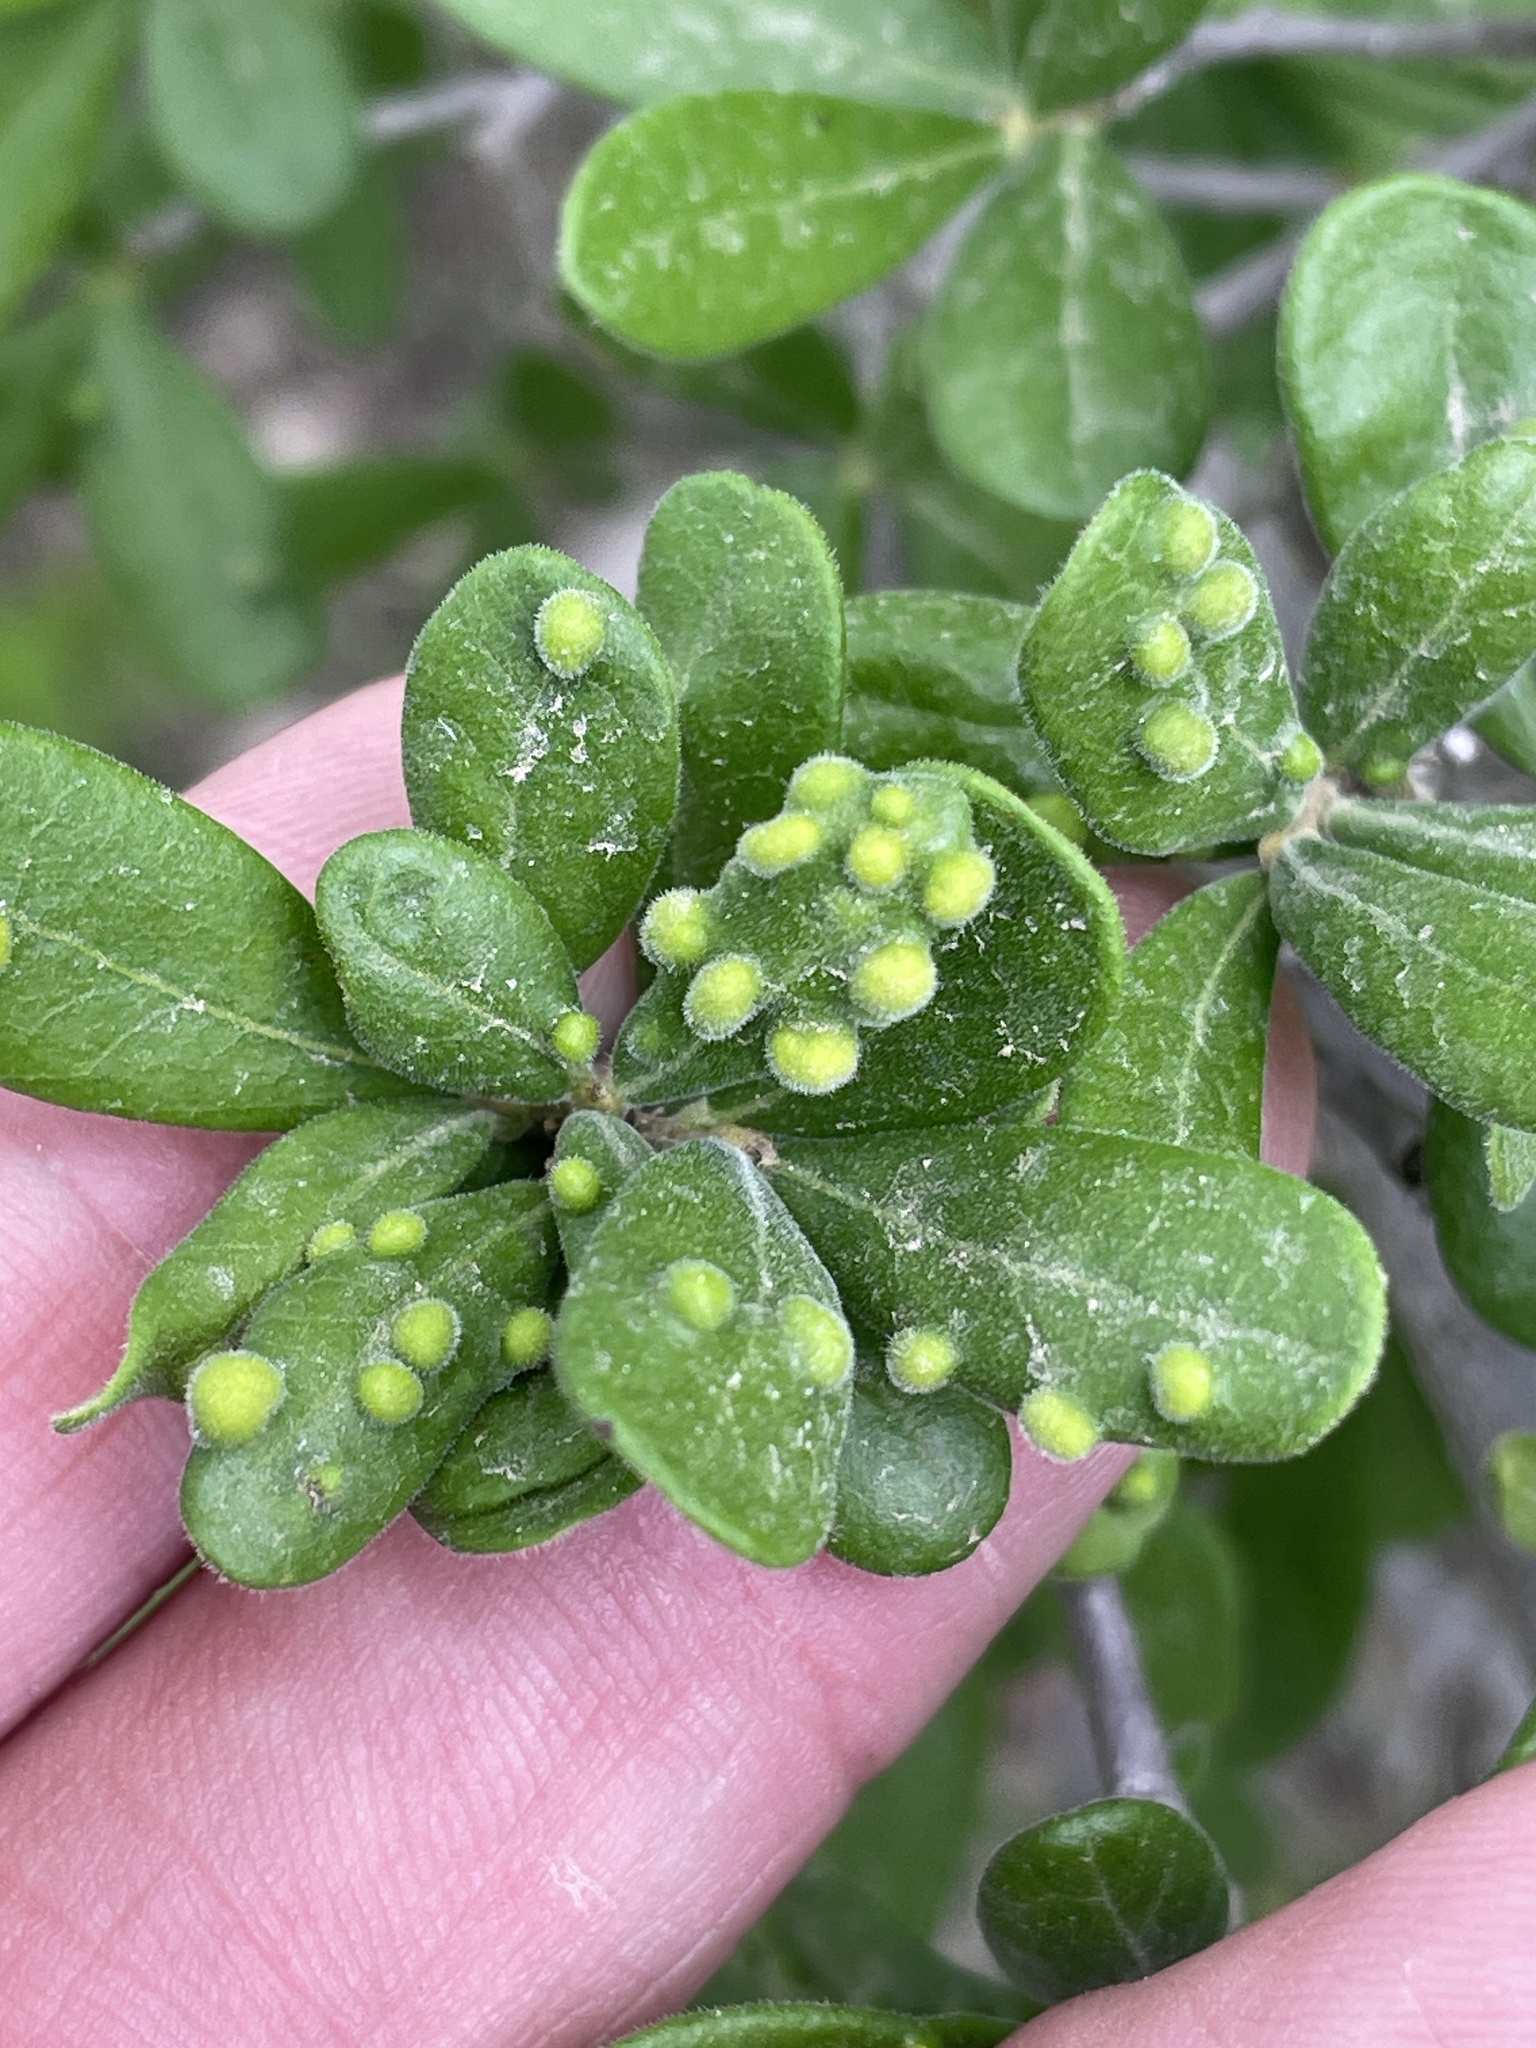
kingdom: Animalia
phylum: Arthropoda
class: Arachnida
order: Trombidiformes
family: Eriophyidae
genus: Aceria
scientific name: Aceria
